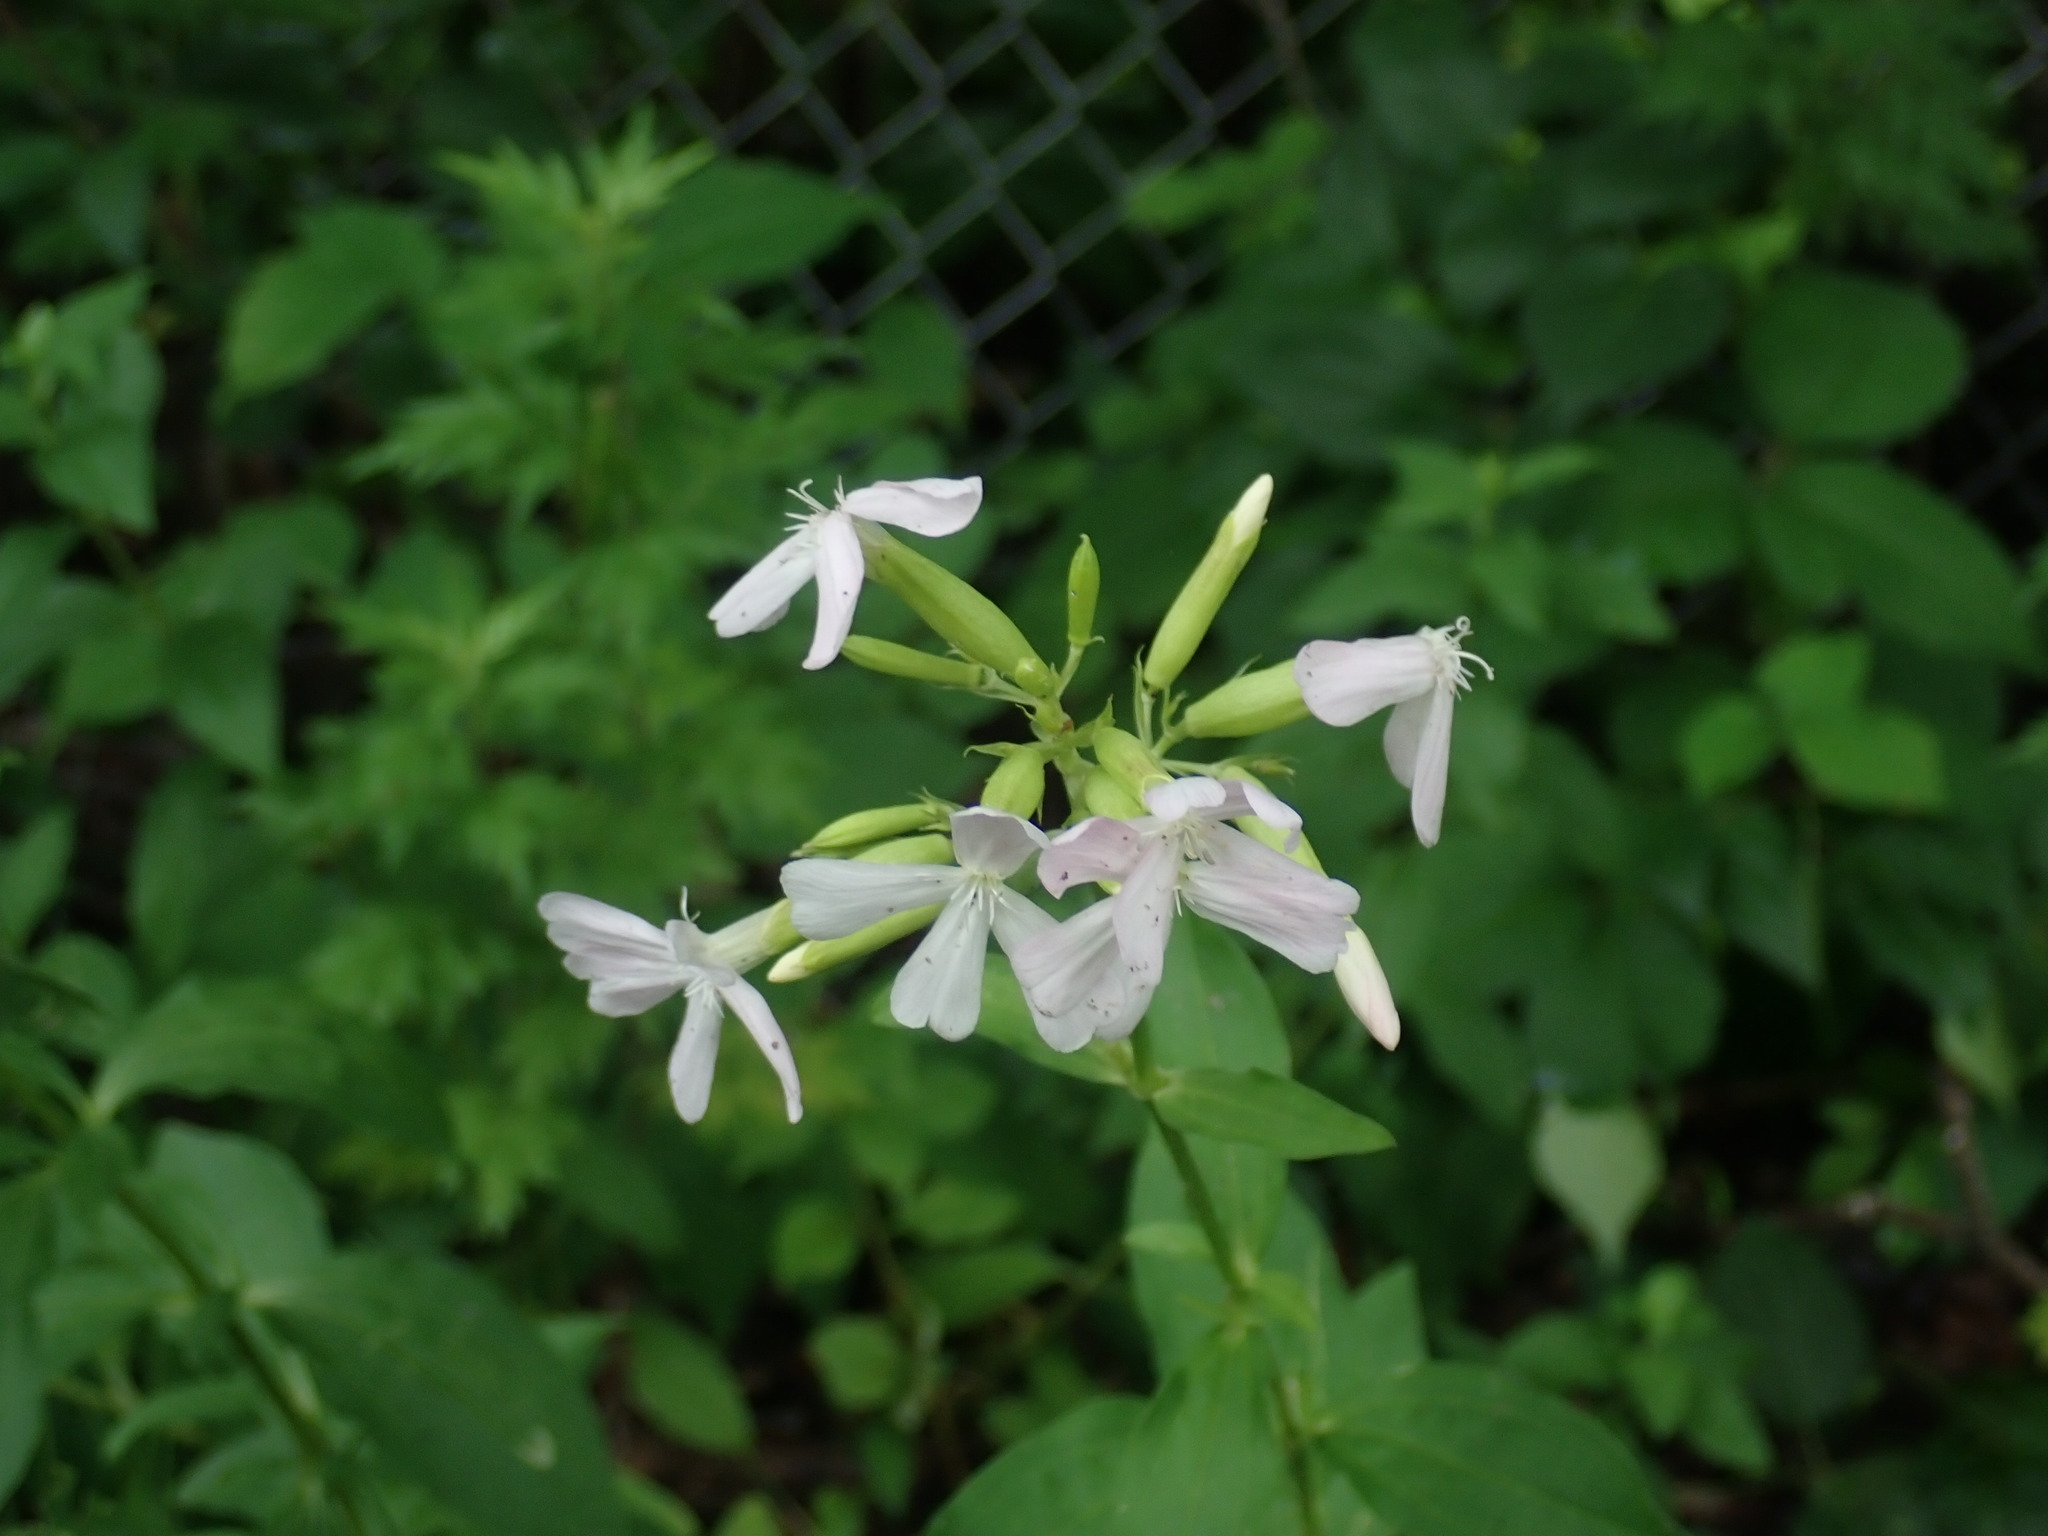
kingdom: Plantae
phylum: Tracheophyta
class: Magnoliopsida
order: Caryophyllales
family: Caryophyllaceae
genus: Saponaria
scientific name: Saponaria officinalis
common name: Soapwort
